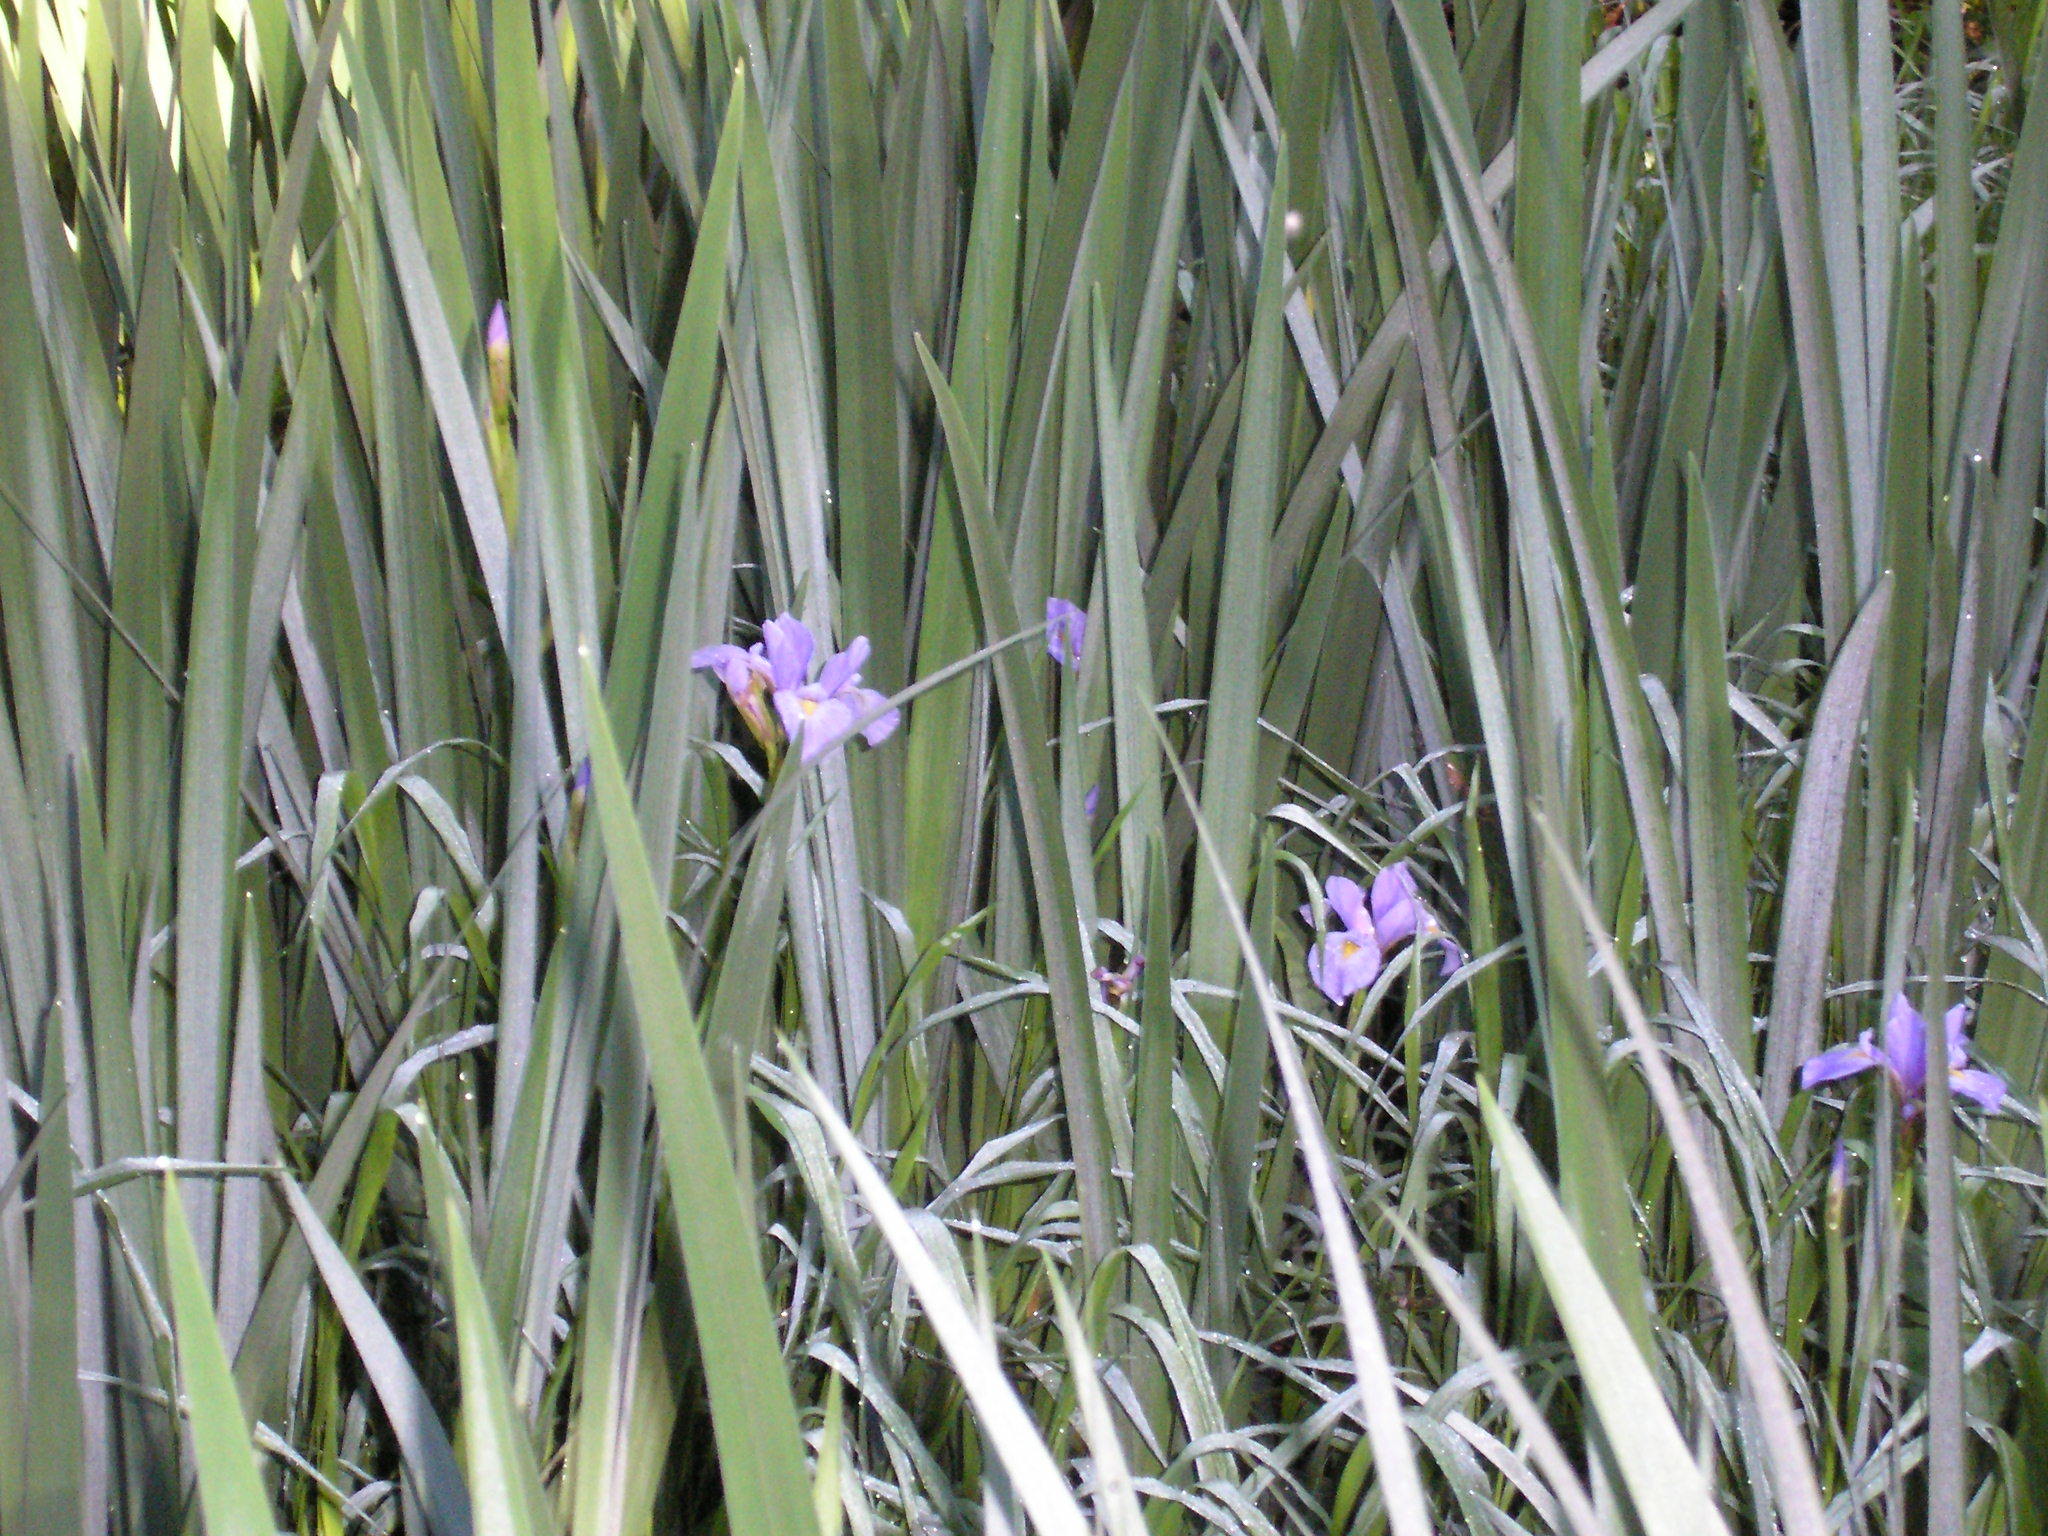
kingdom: Plantae
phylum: Tracheophyta
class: Liliopsida
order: Asparagales
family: Iridaceae
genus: Iris
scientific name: Iris virginica
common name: Southern blue flag
